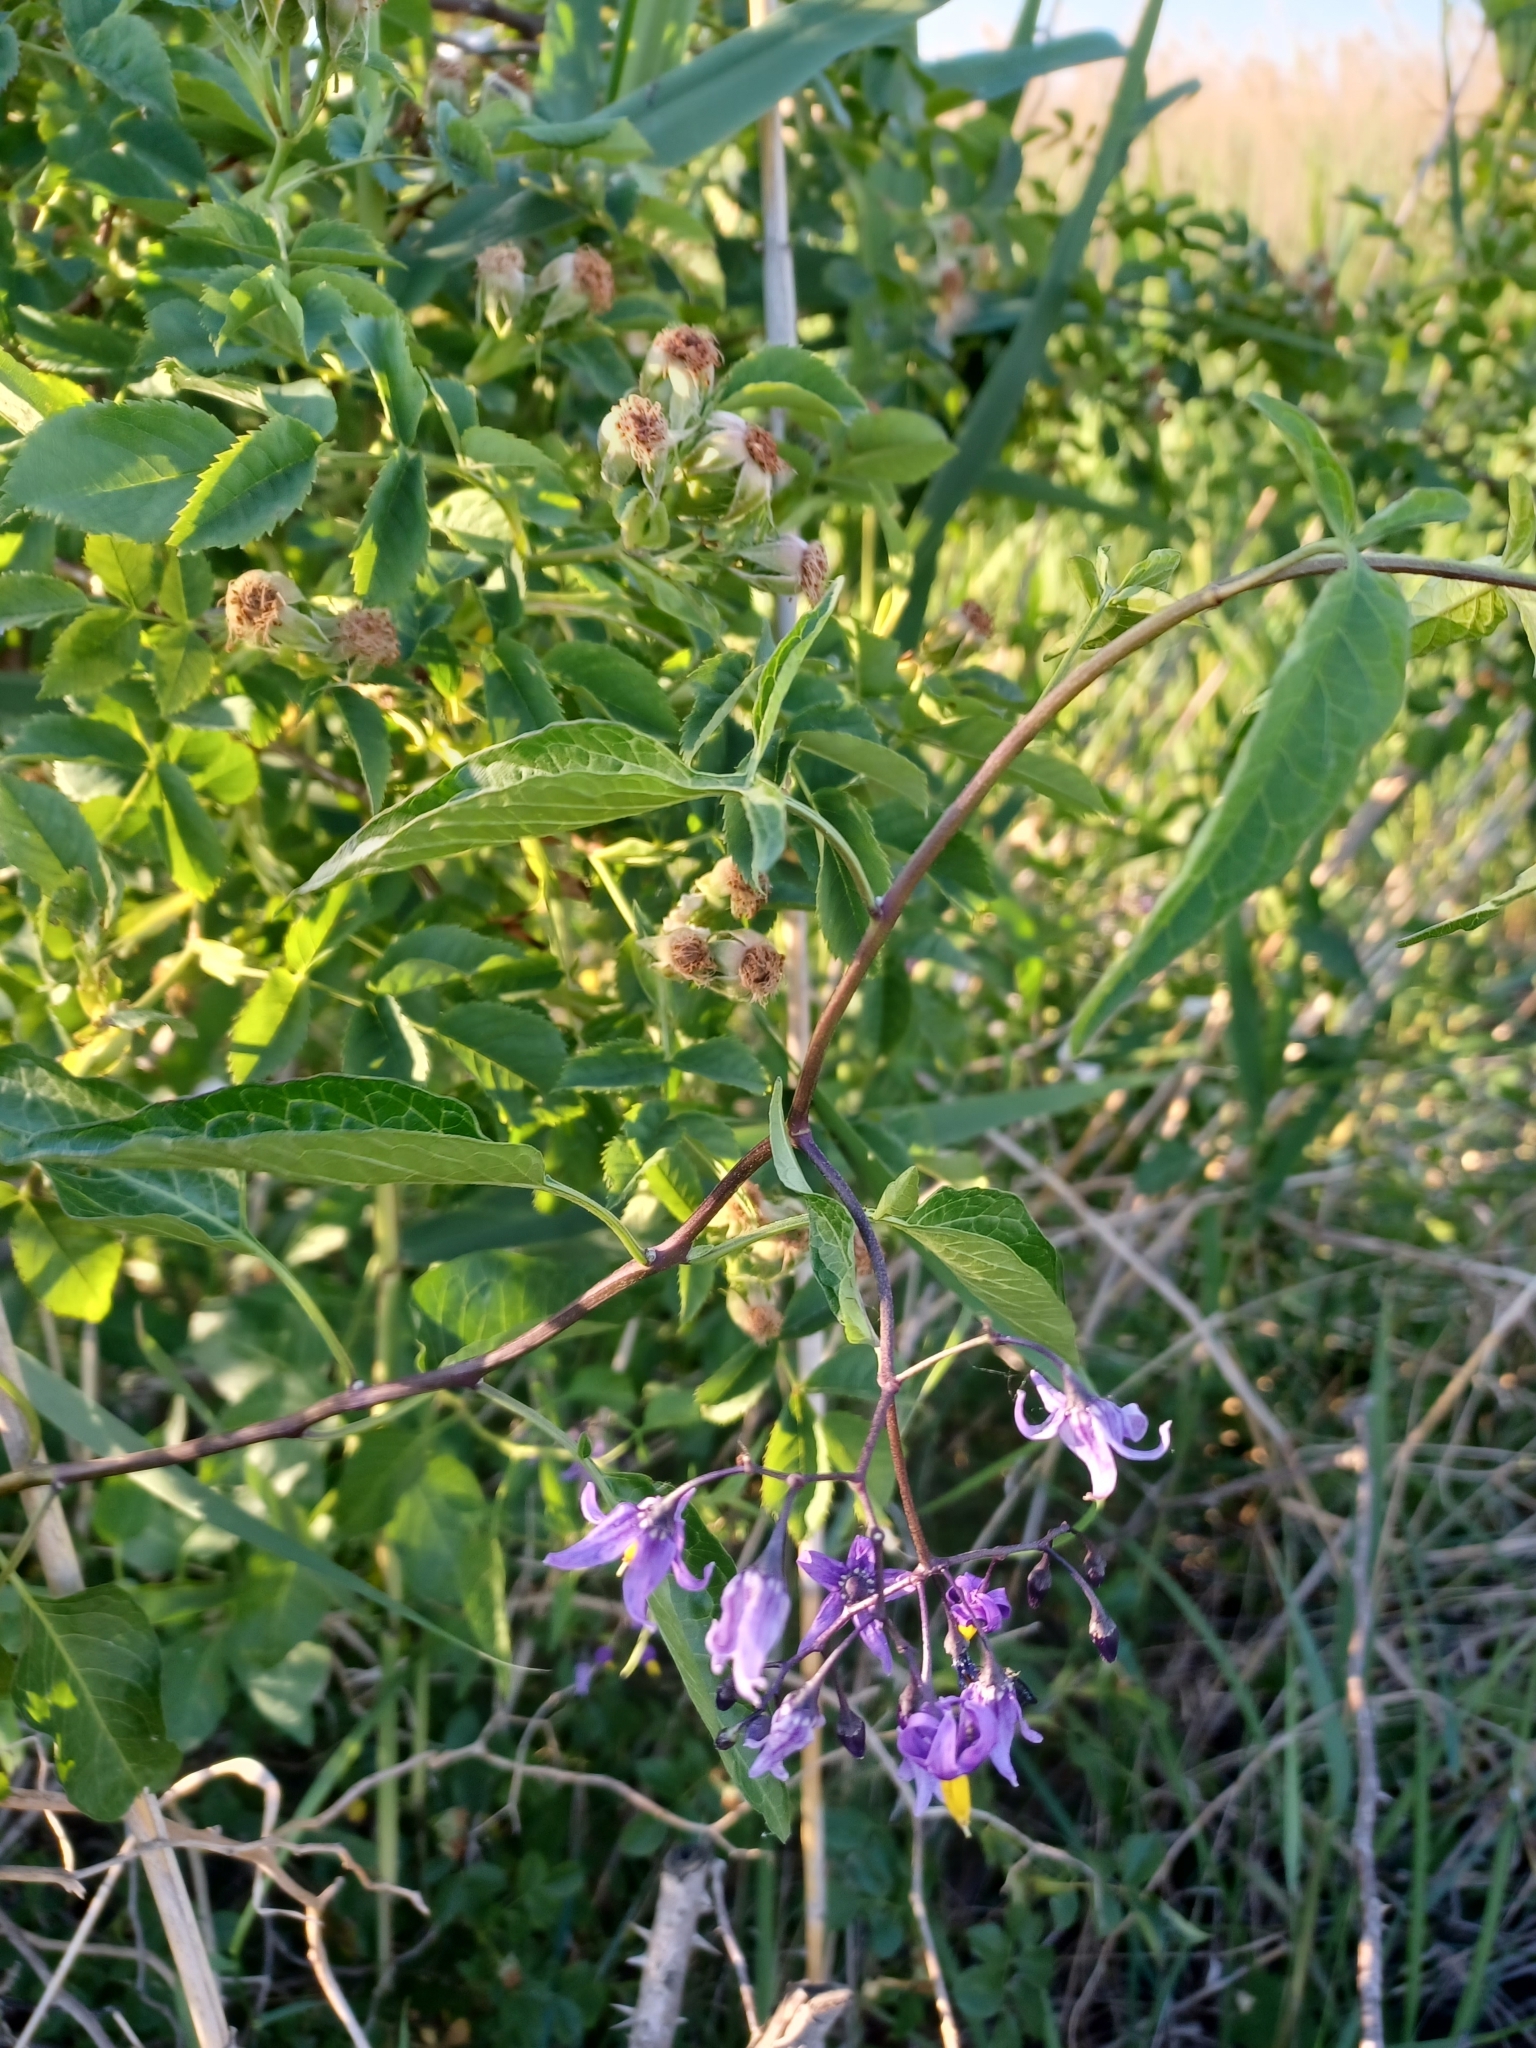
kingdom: Plantae
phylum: Tracheophyta
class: Magnoliopsida
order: Solanales
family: Solanaceae
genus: Solanum
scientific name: Solanum dulcamara
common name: Climbing nightshade
